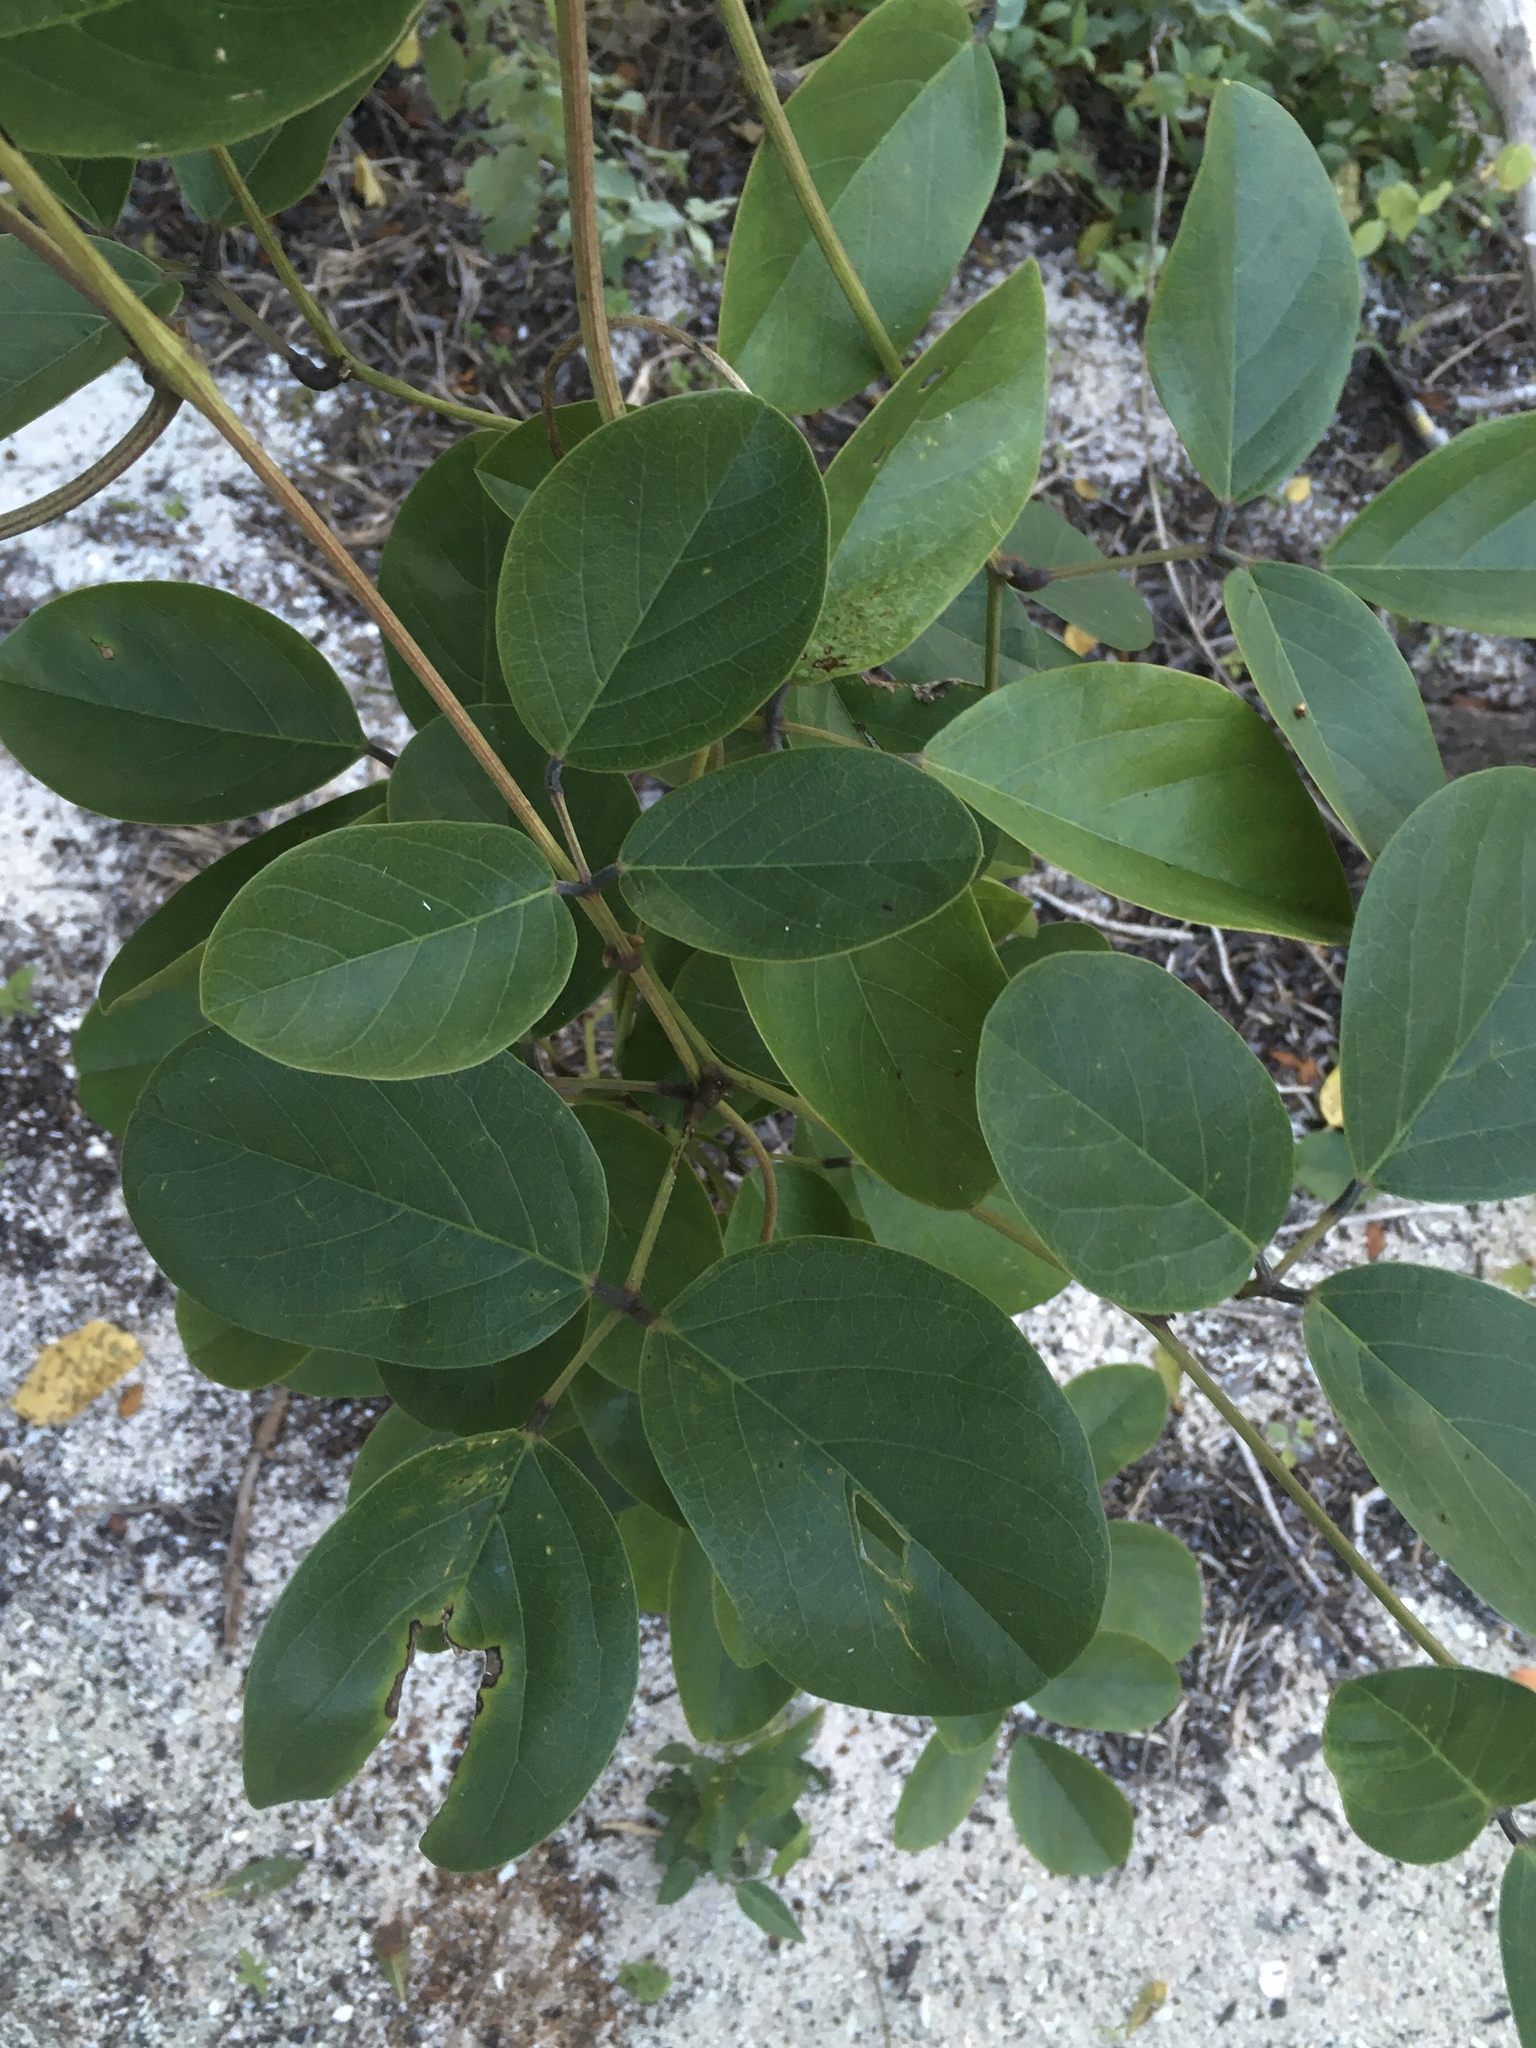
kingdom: Plantae
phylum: Tracheophyta
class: Magnoliopsida
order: Fabales
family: Fabaceae
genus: Canavalia
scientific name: Canavalia rosea
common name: Beach-bean
